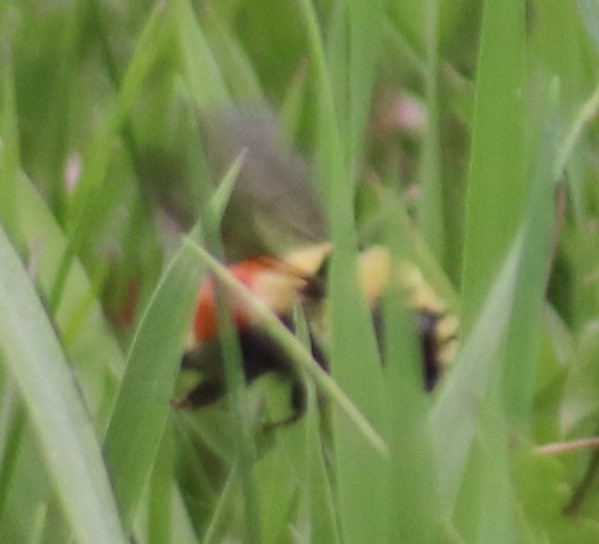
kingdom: Animalia
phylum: Arthropoda
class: Insecta
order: Hymenoptera
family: Apidae
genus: Bombus
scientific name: Bombus huntii
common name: Hunt bumble bee
